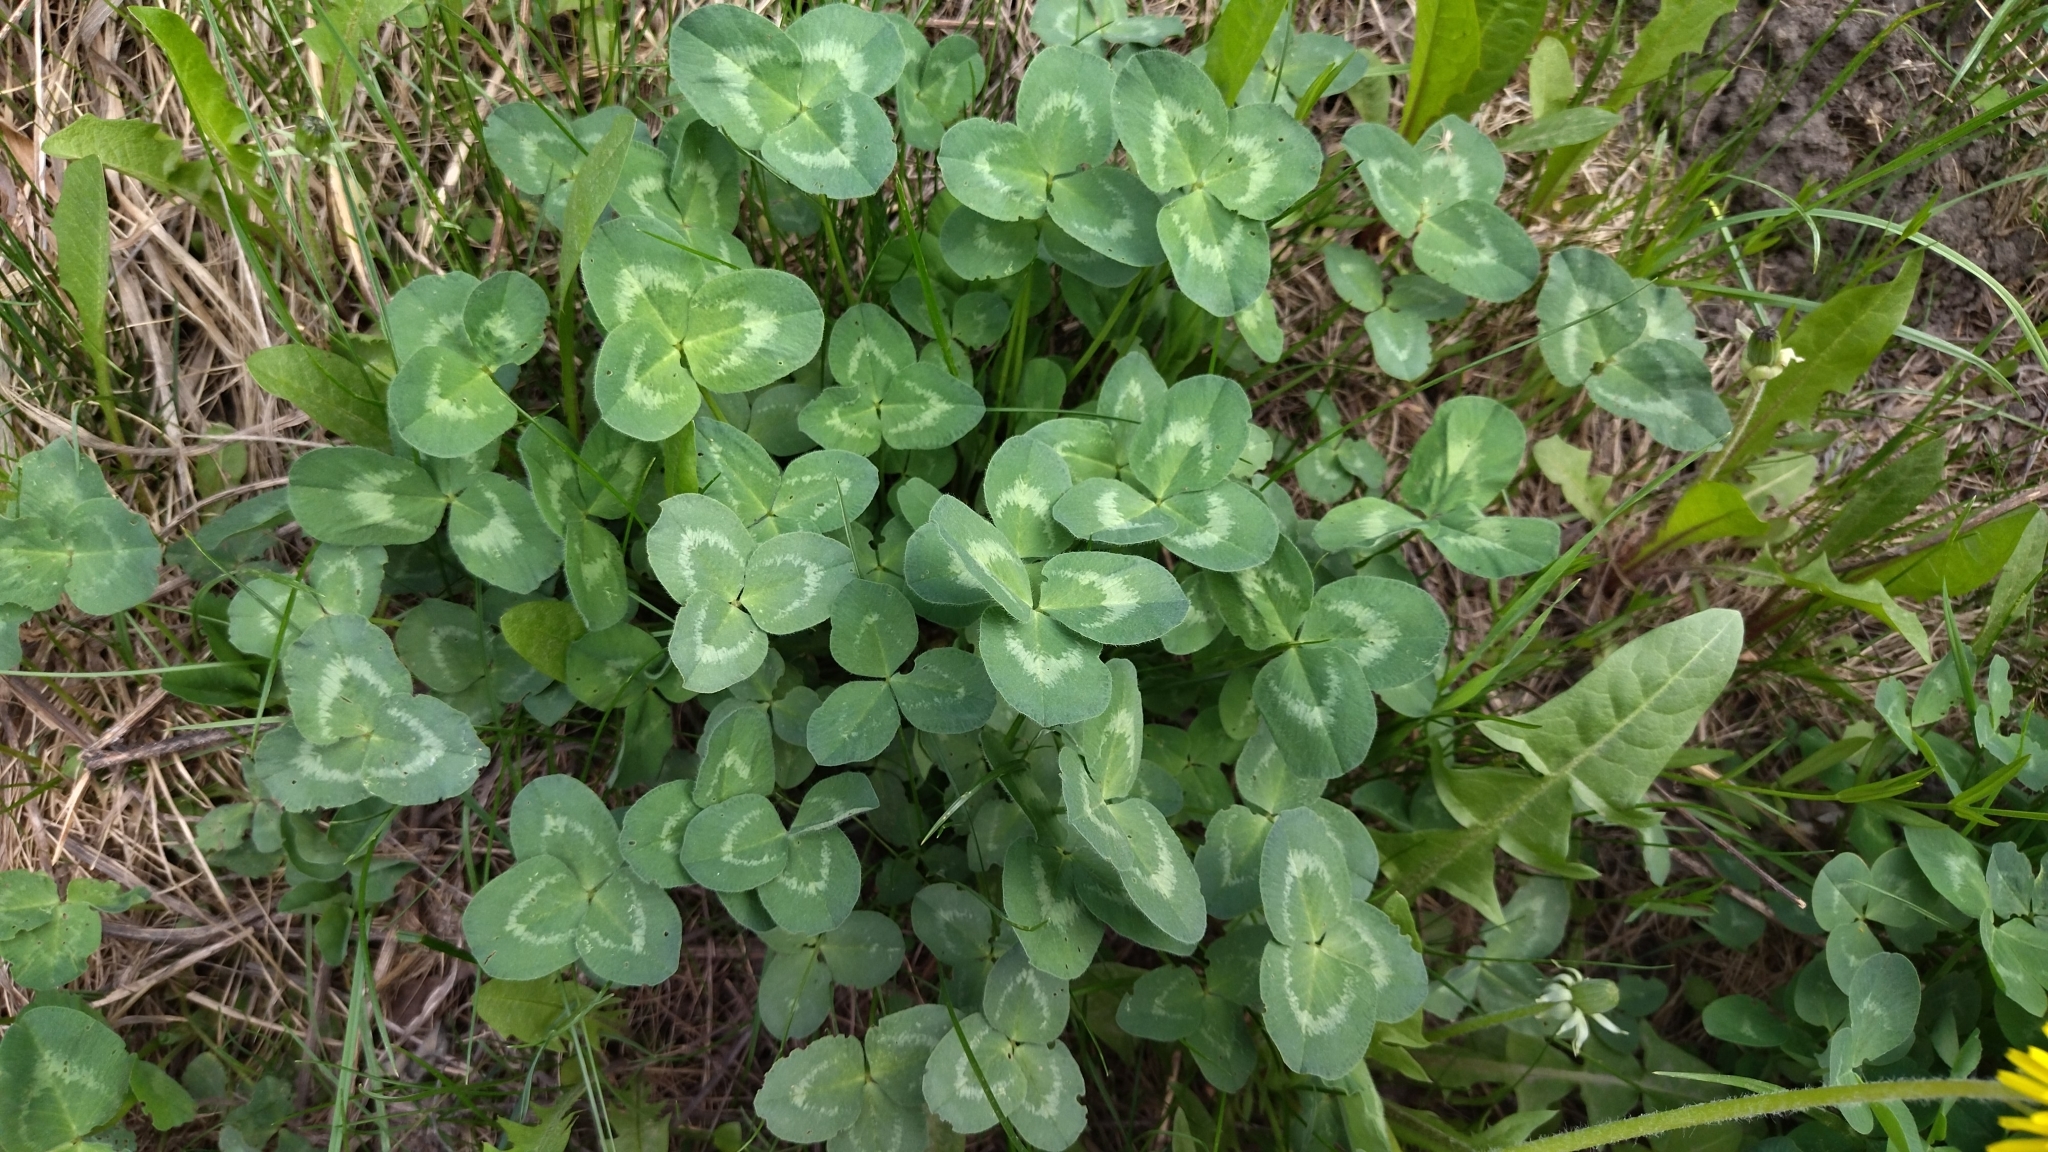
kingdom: Plantae
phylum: Tracheophyta
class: Magnoliopsida
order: Fabales
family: Fabaceae
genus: Trifolium
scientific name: Trifolium pratense
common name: Red clover
